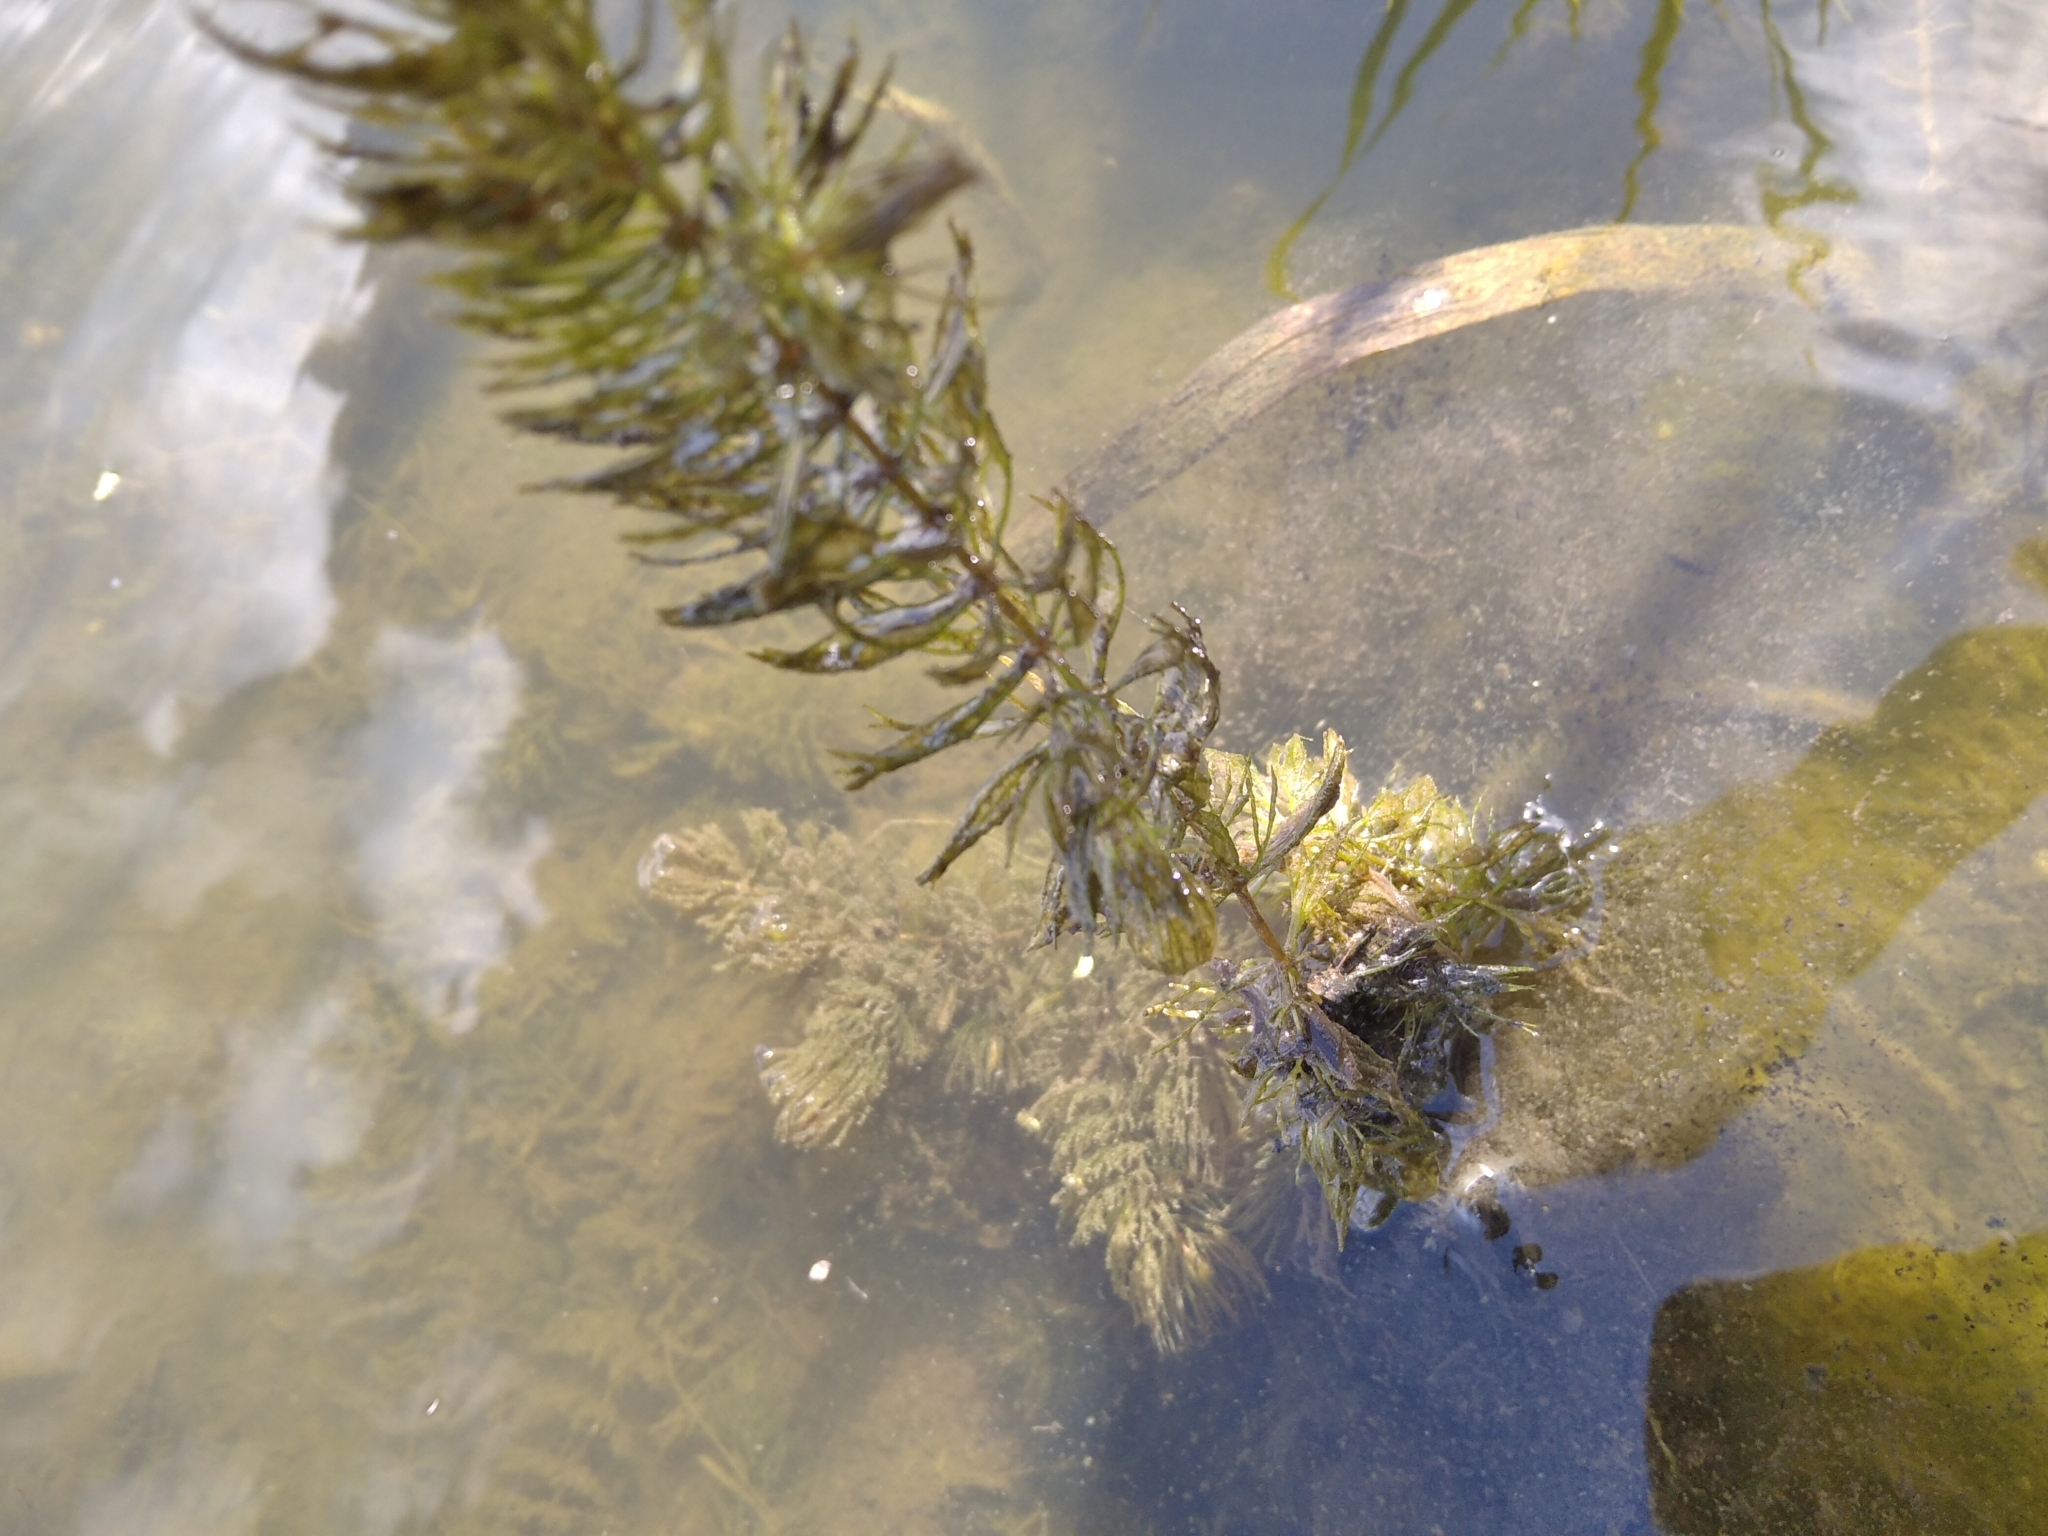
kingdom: Plantae
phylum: Tracheophyta
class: Magnoliopsida
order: Ceratophyllales
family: Ceratophyllaceae
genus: Ceratophyllum
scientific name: Ceratophyllum demersum
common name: Rigid hornwort
